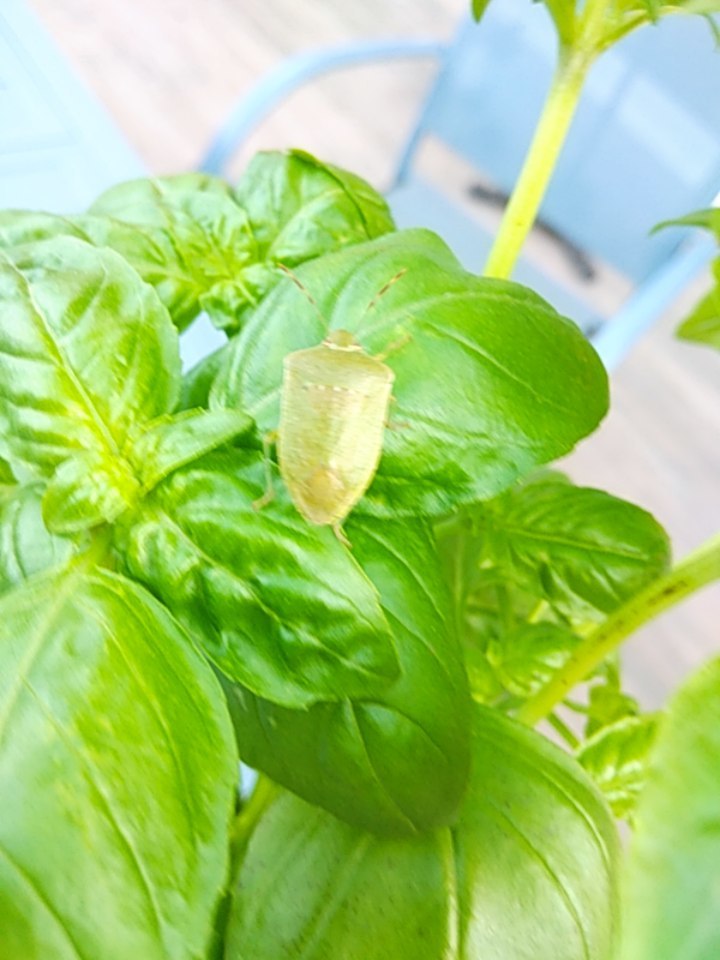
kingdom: Animalia
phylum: Arthropoda
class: Insecta
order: Hemiptera
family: Pentatomidae
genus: Nezara
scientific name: Nezara viridula
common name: Southern green stink bug
